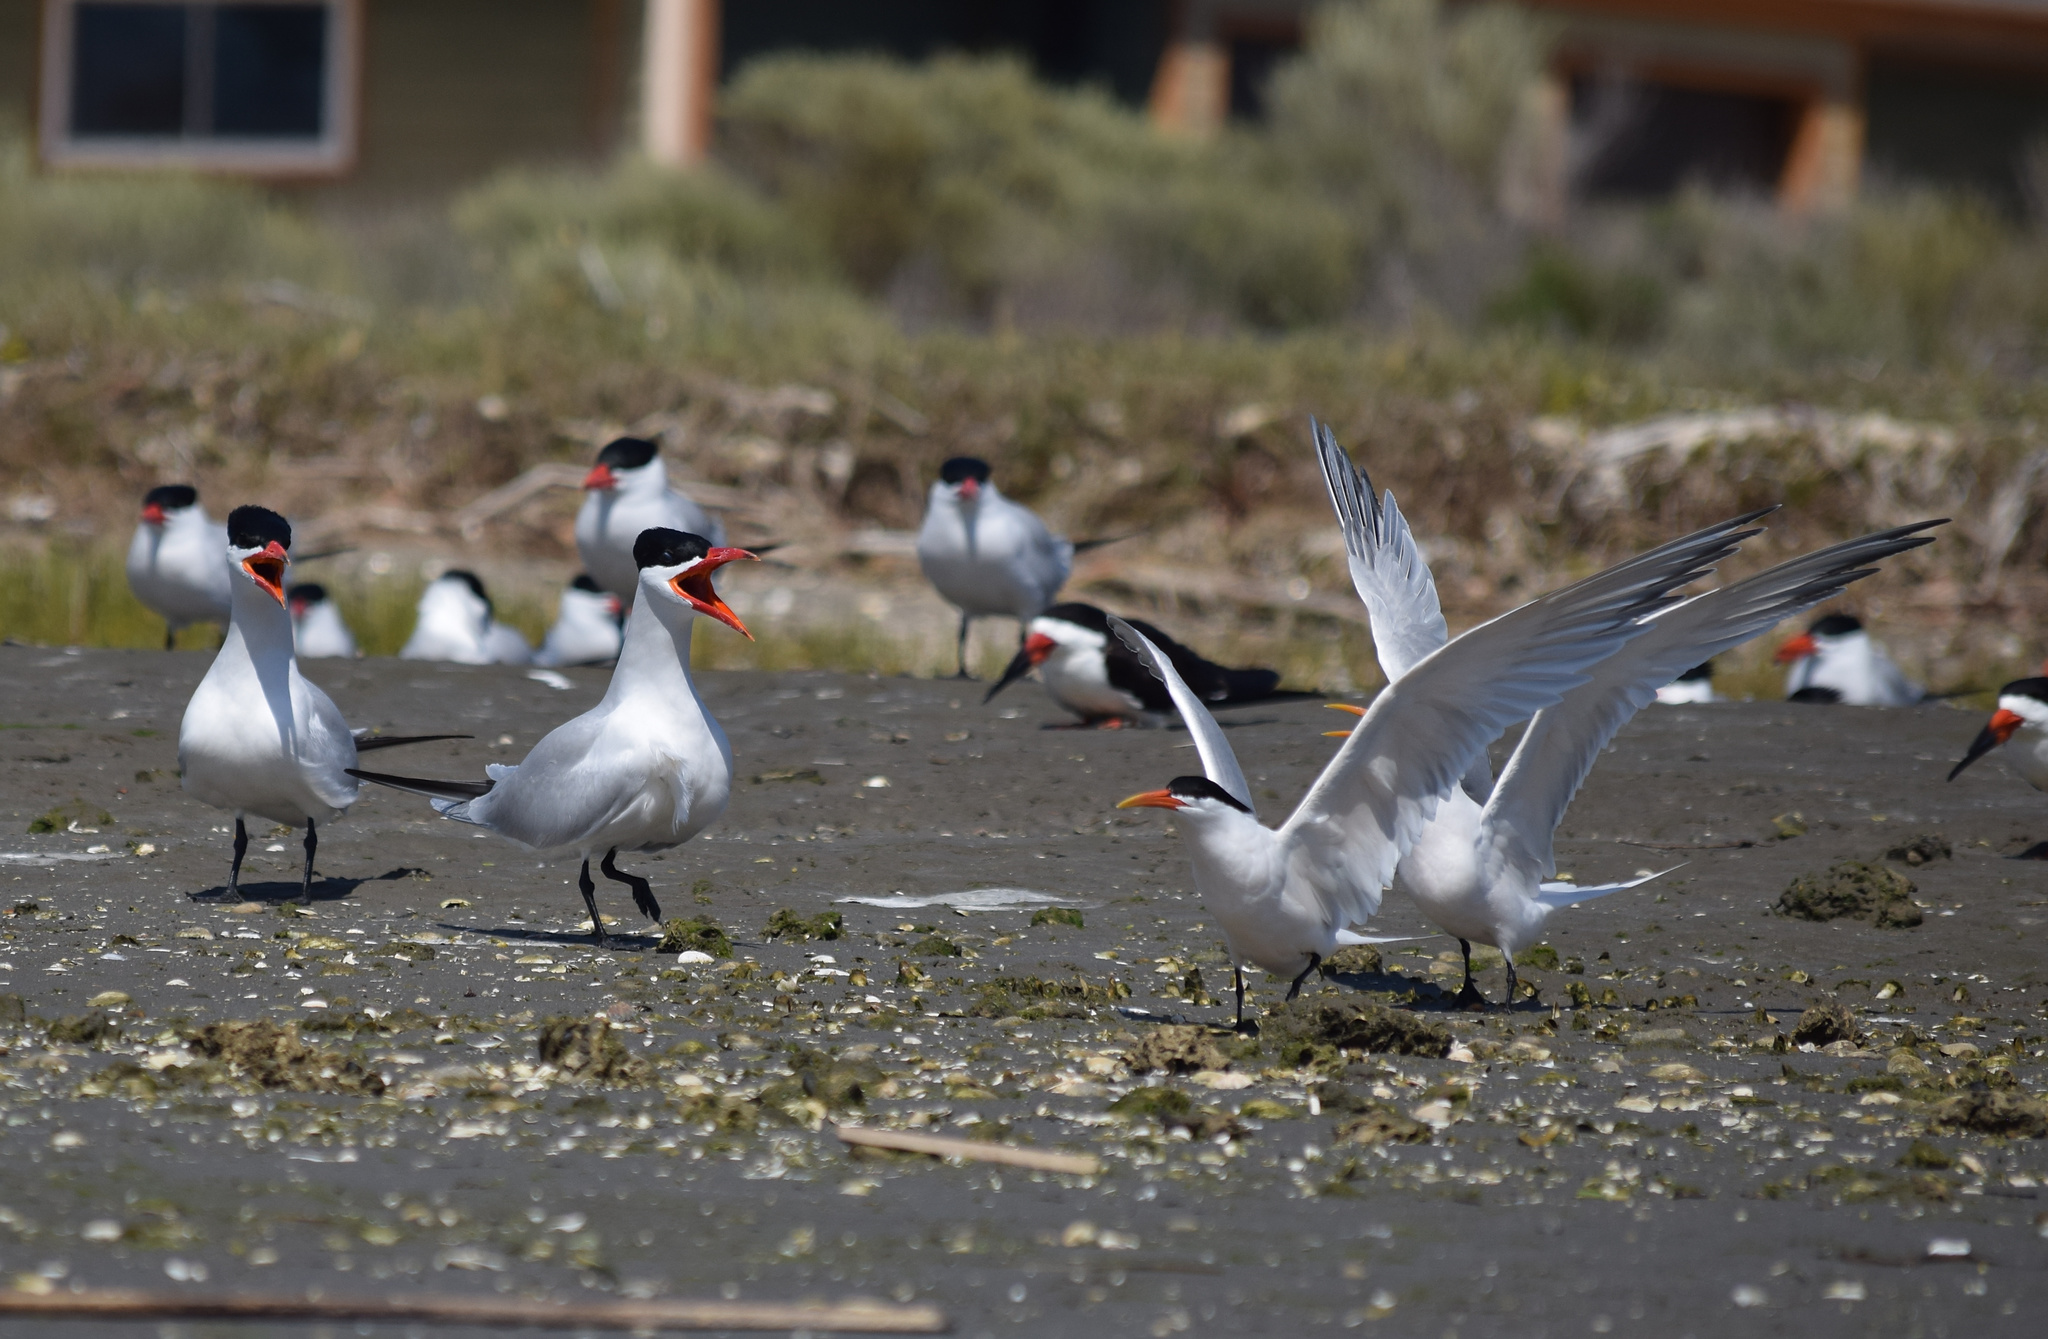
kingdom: Animalia
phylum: Chordata
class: Aves
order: Charadriiformes
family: Laridae
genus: Hydroprogne
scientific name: Hydroprogne caspia
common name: Caspian tern
